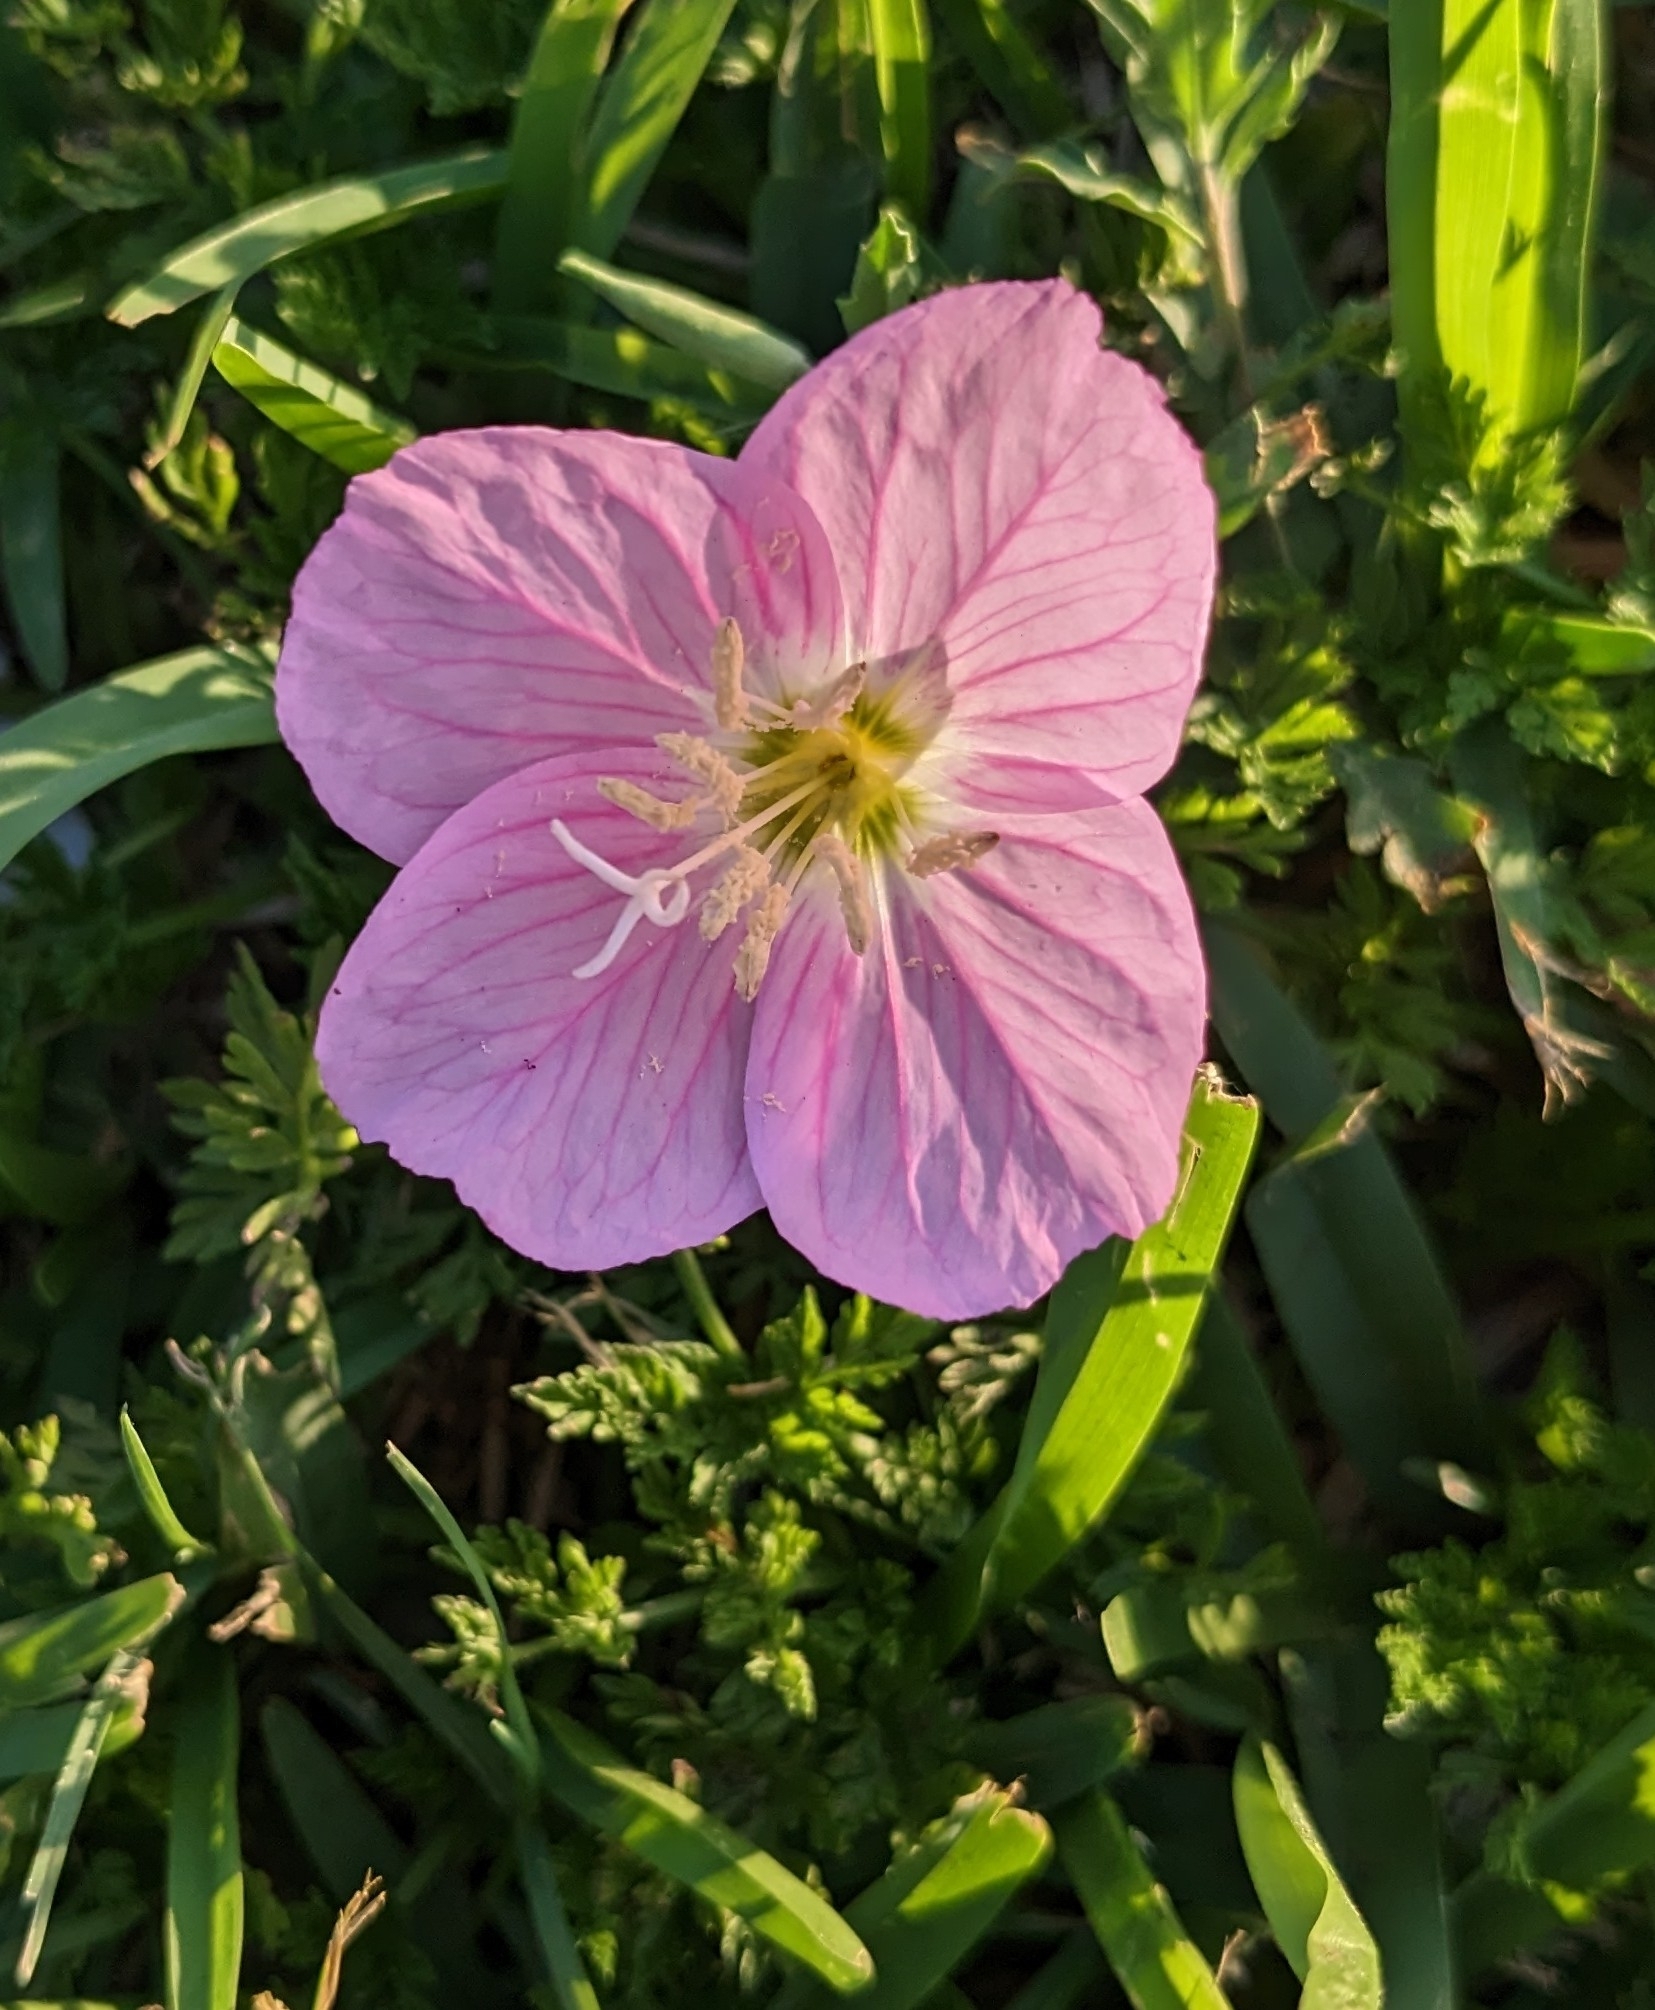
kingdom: Plantae
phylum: Tracheophyta
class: Magnoliopsida
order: Myrtales
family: Onagraceae
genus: Oenothera
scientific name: Oenothera speciosa
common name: White evening-primrose
